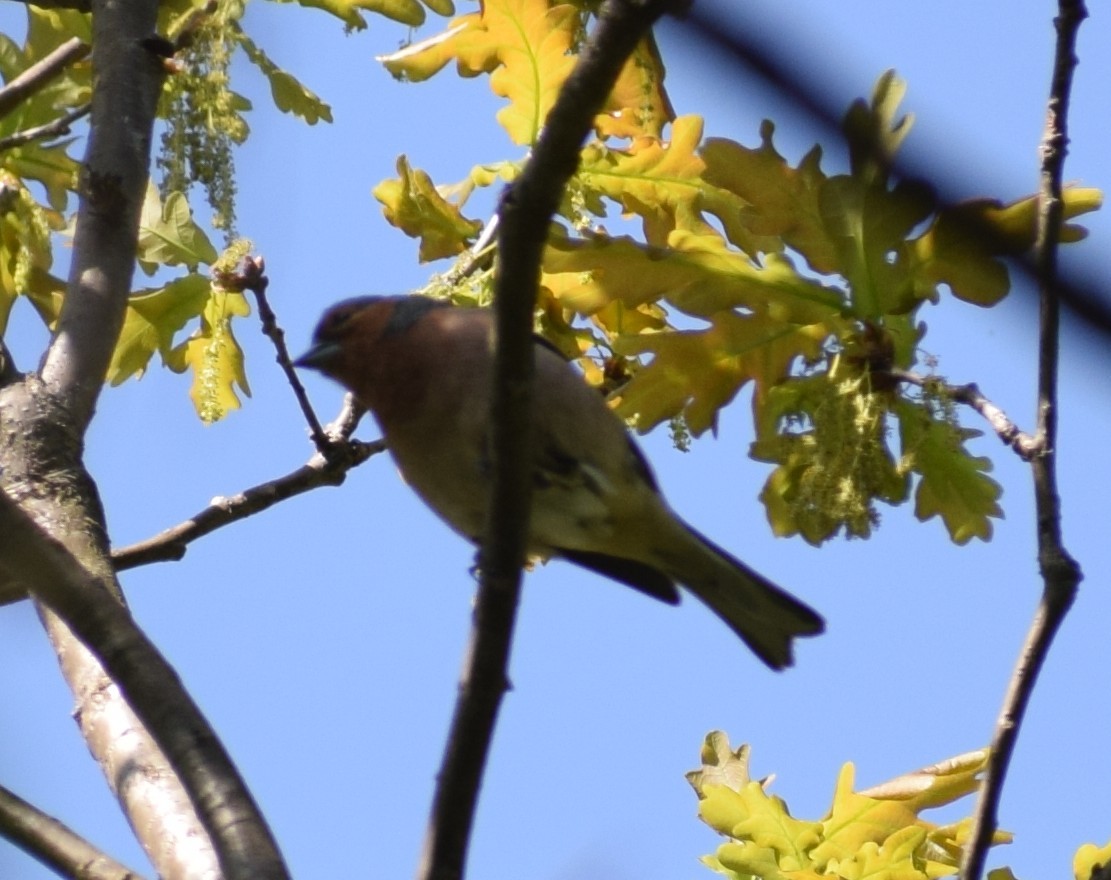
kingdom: Animalia
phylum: Chordata
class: Aves
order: Passeriformes
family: Fringillidae
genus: Fringilla
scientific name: Fringilla coelebs
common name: Common chaffinch
